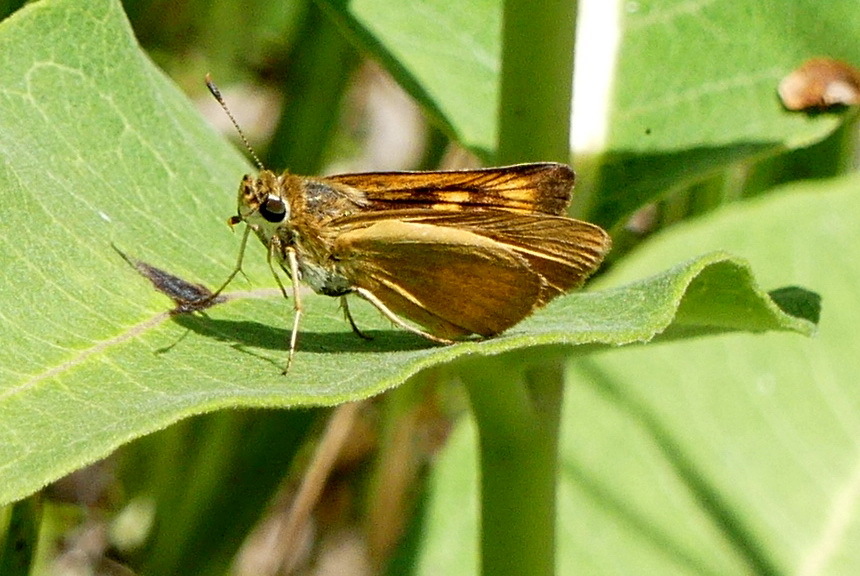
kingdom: Animalia
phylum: Arthropoda
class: Insecta
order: Lepidoptera
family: Hesperiidae
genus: Atrytone
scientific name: Atrytone delaware
